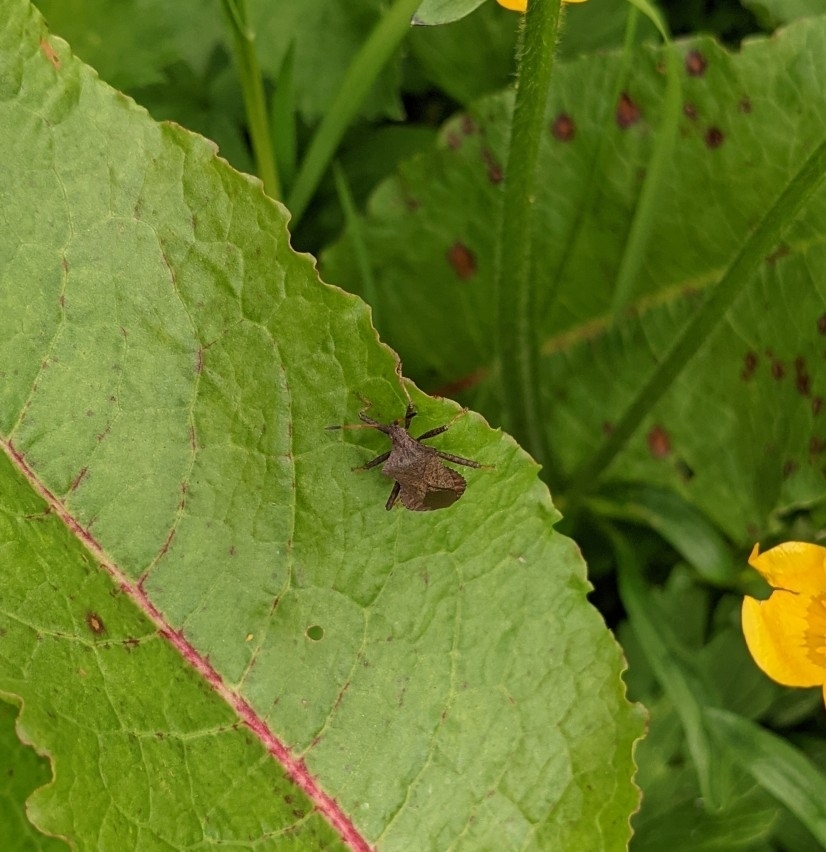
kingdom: Animalia
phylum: Arthropoda
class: Insecta
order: Hemiptera
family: Coreidae
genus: Coreus
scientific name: Coreus marginatus
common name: Dock bug
